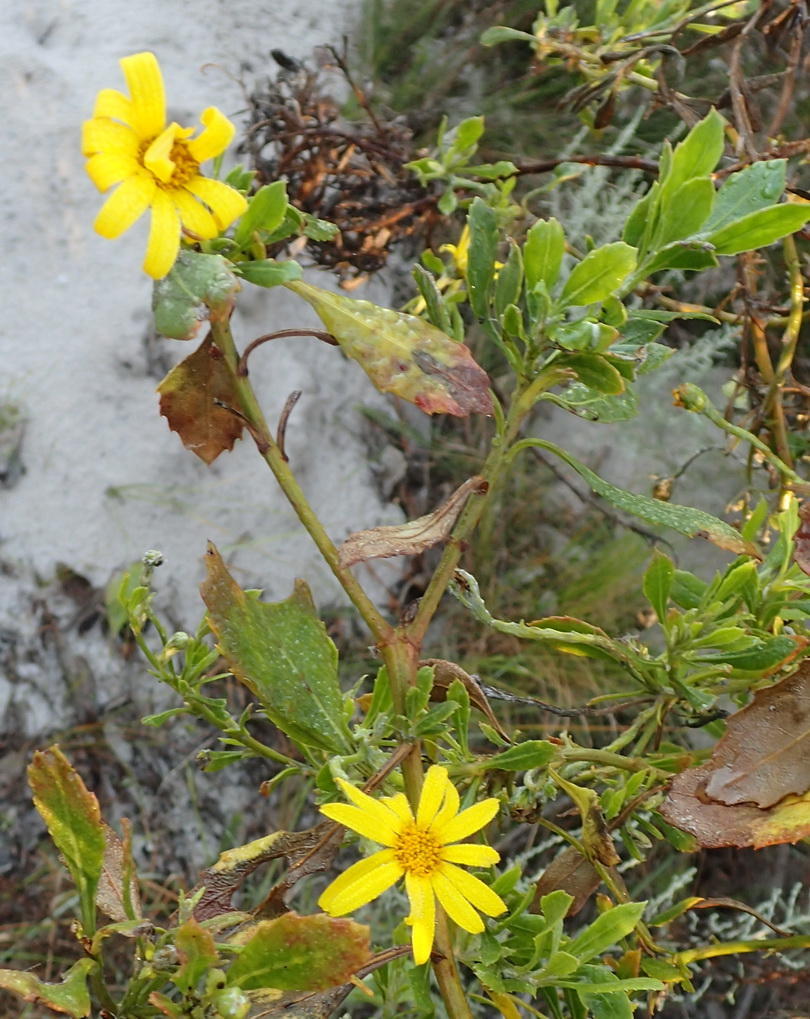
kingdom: Plantae
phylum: Tracheophyta
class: Magnoliopsida
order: Asterales
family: Asteraceae
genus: Osteospermum
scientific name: Osteospermum moniliferum
